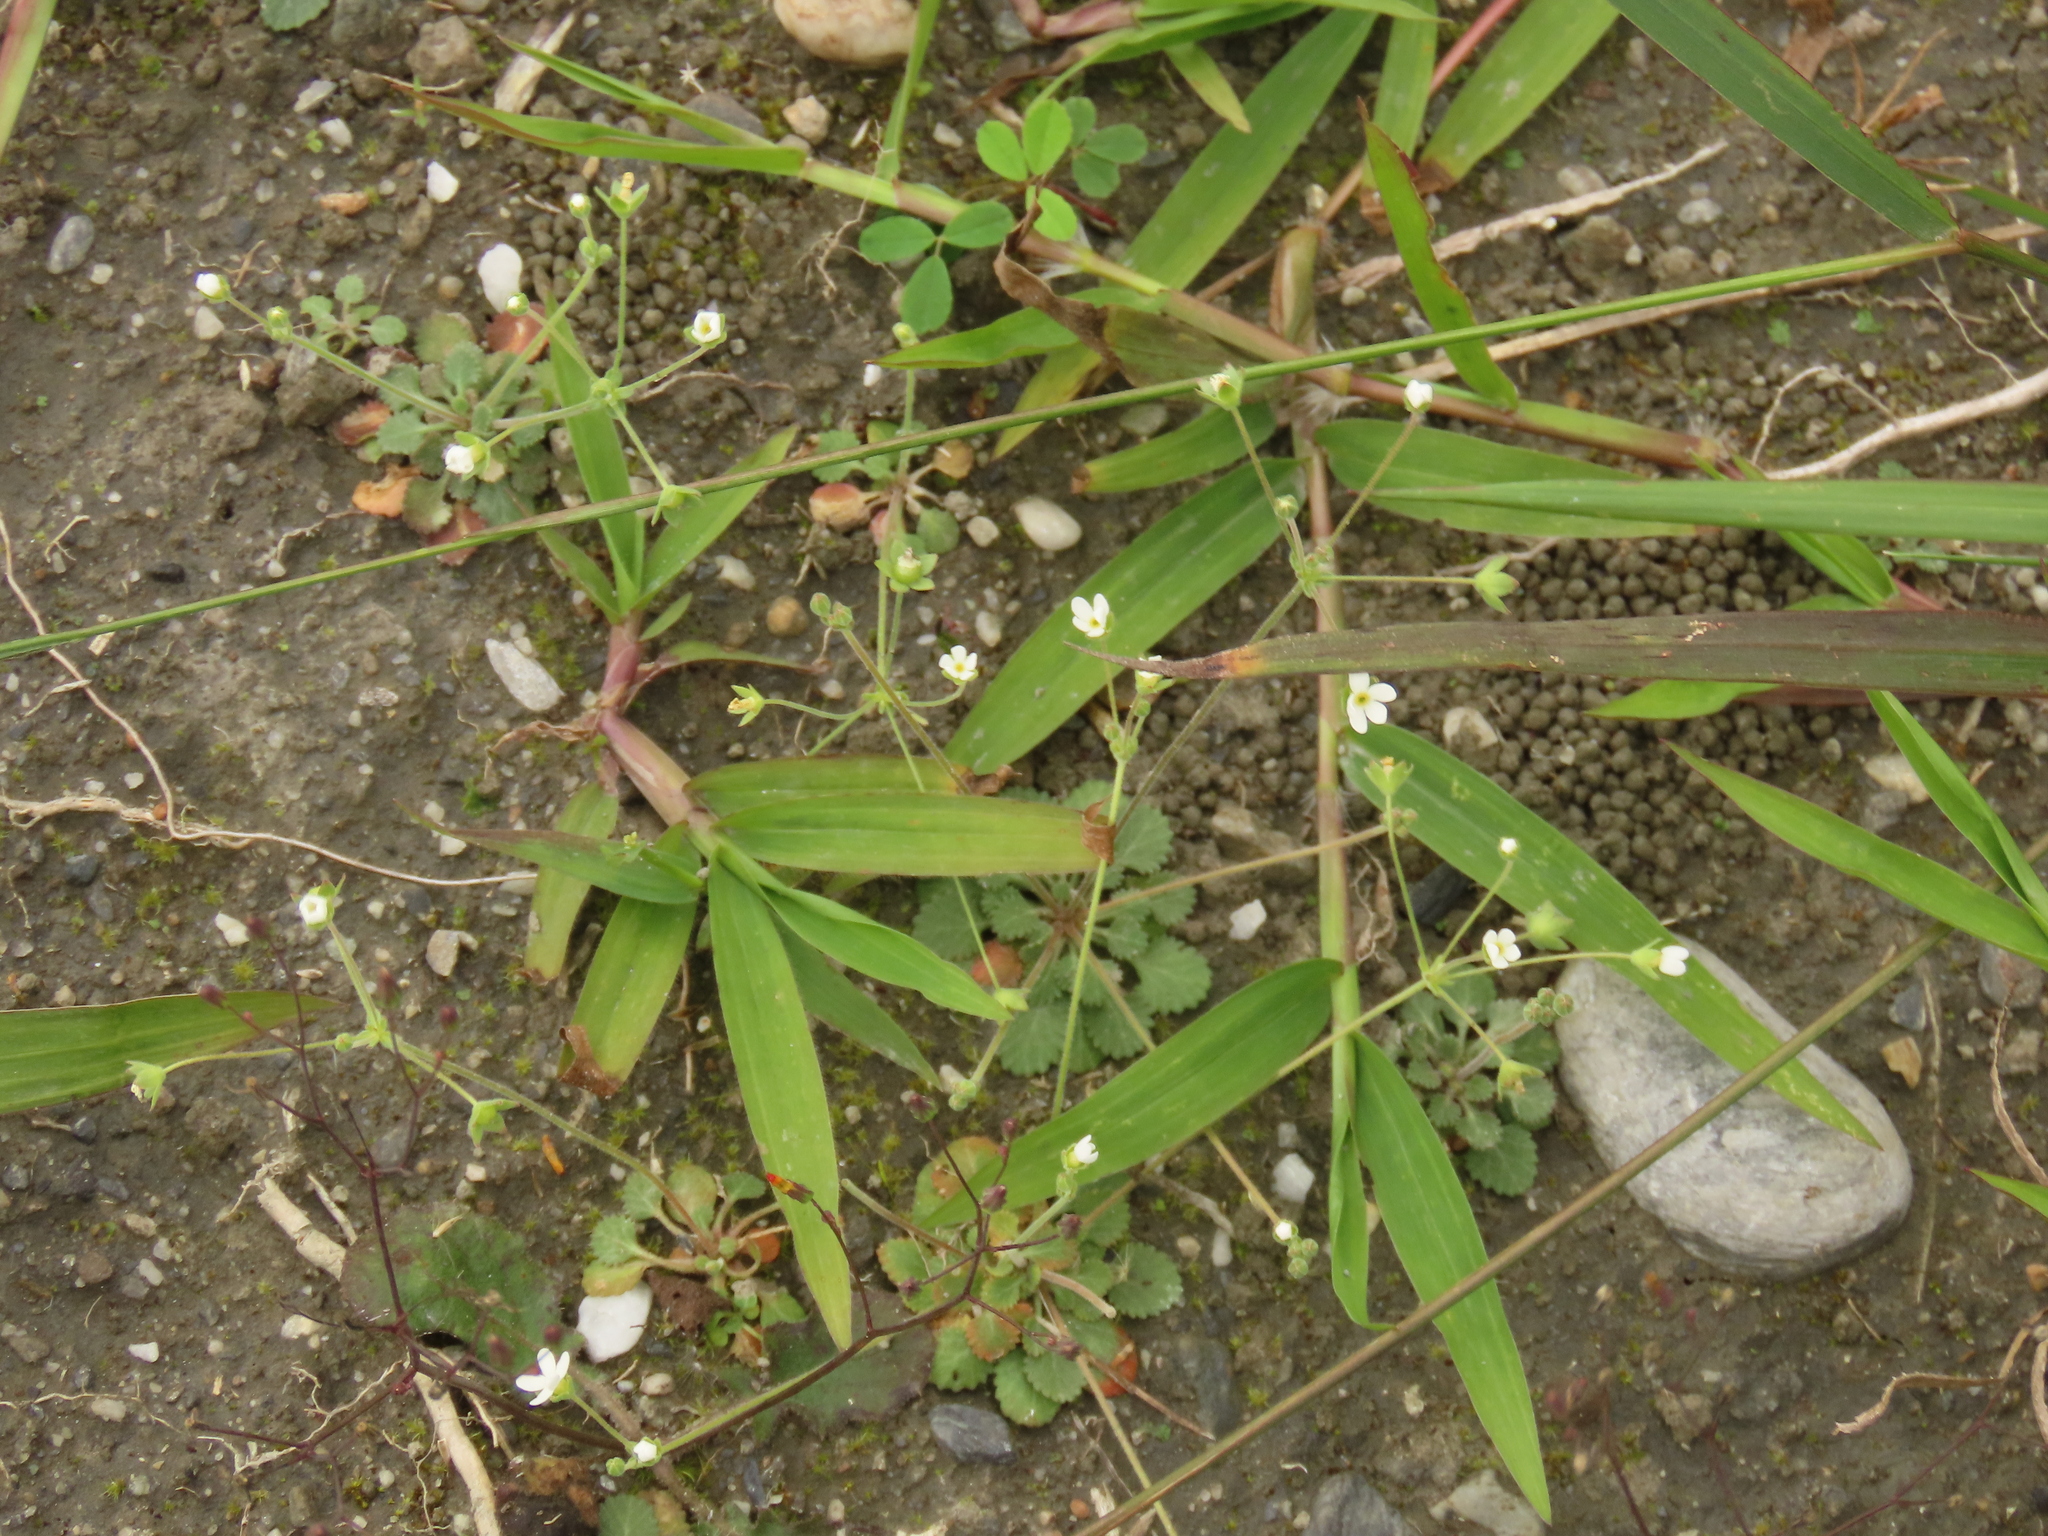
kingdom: Plantae
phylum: Tracheophyta
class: Magnoliopsida
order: Ericales
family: Primulaceae
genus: Androsace
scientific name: Androsace umbellata
